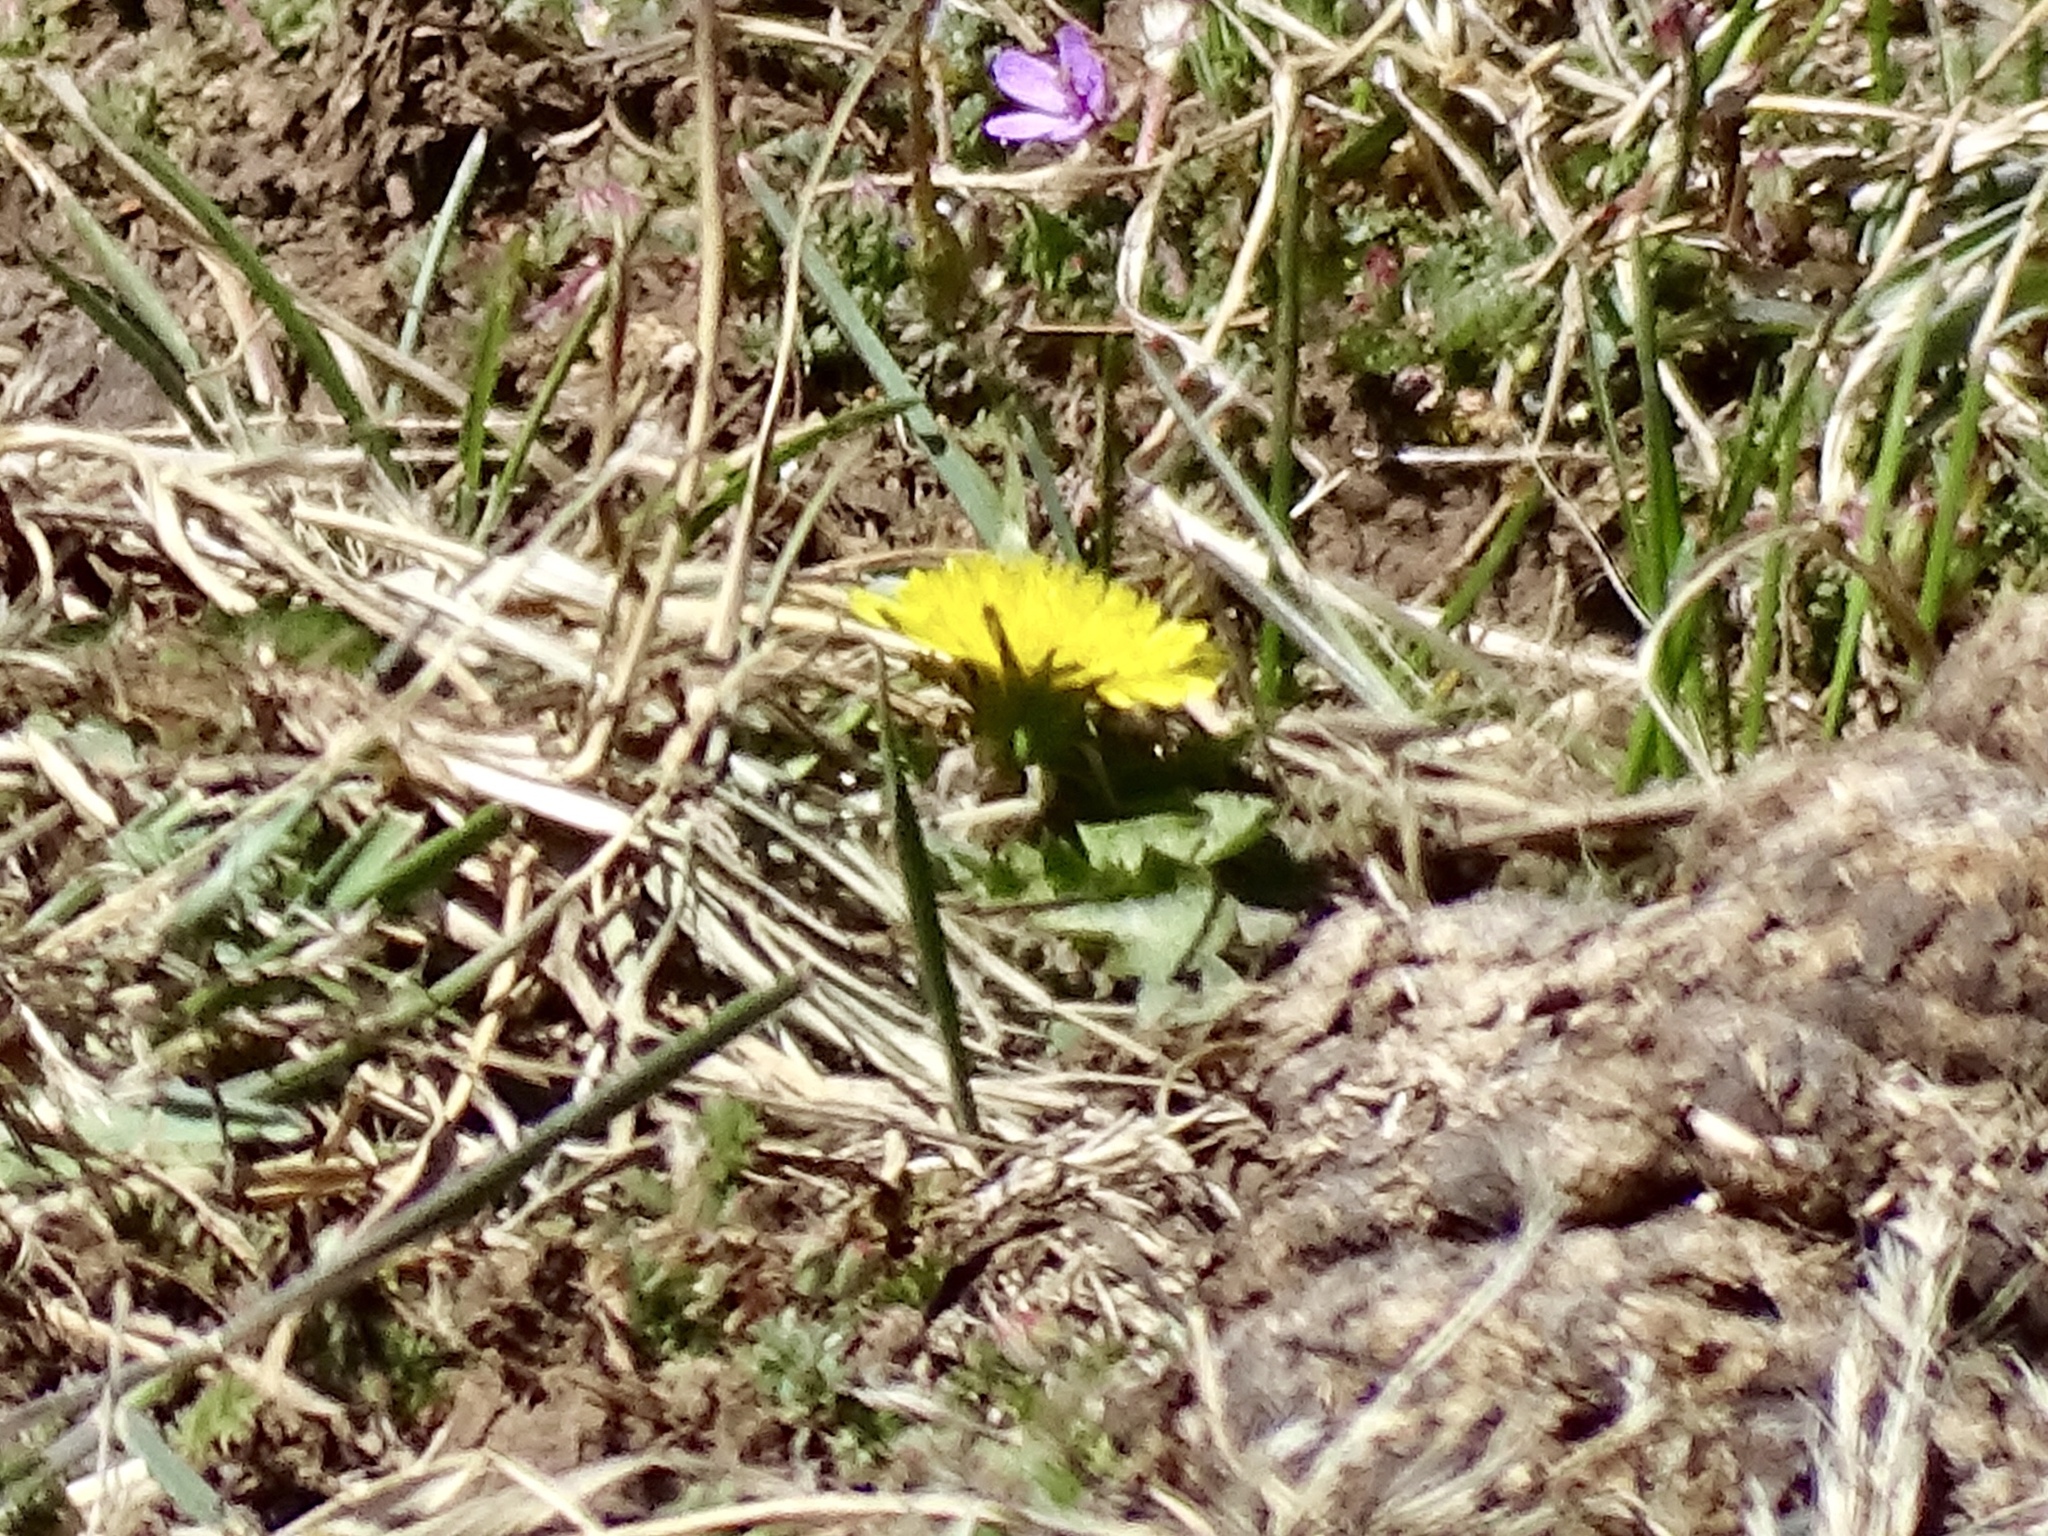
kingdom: Plantae
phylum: Tracheophyta
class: Magnoliopsida
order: Asterales
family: Asteraceae
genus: Taraxacum
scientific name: Taraxacum officinale
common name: Common dandelion
